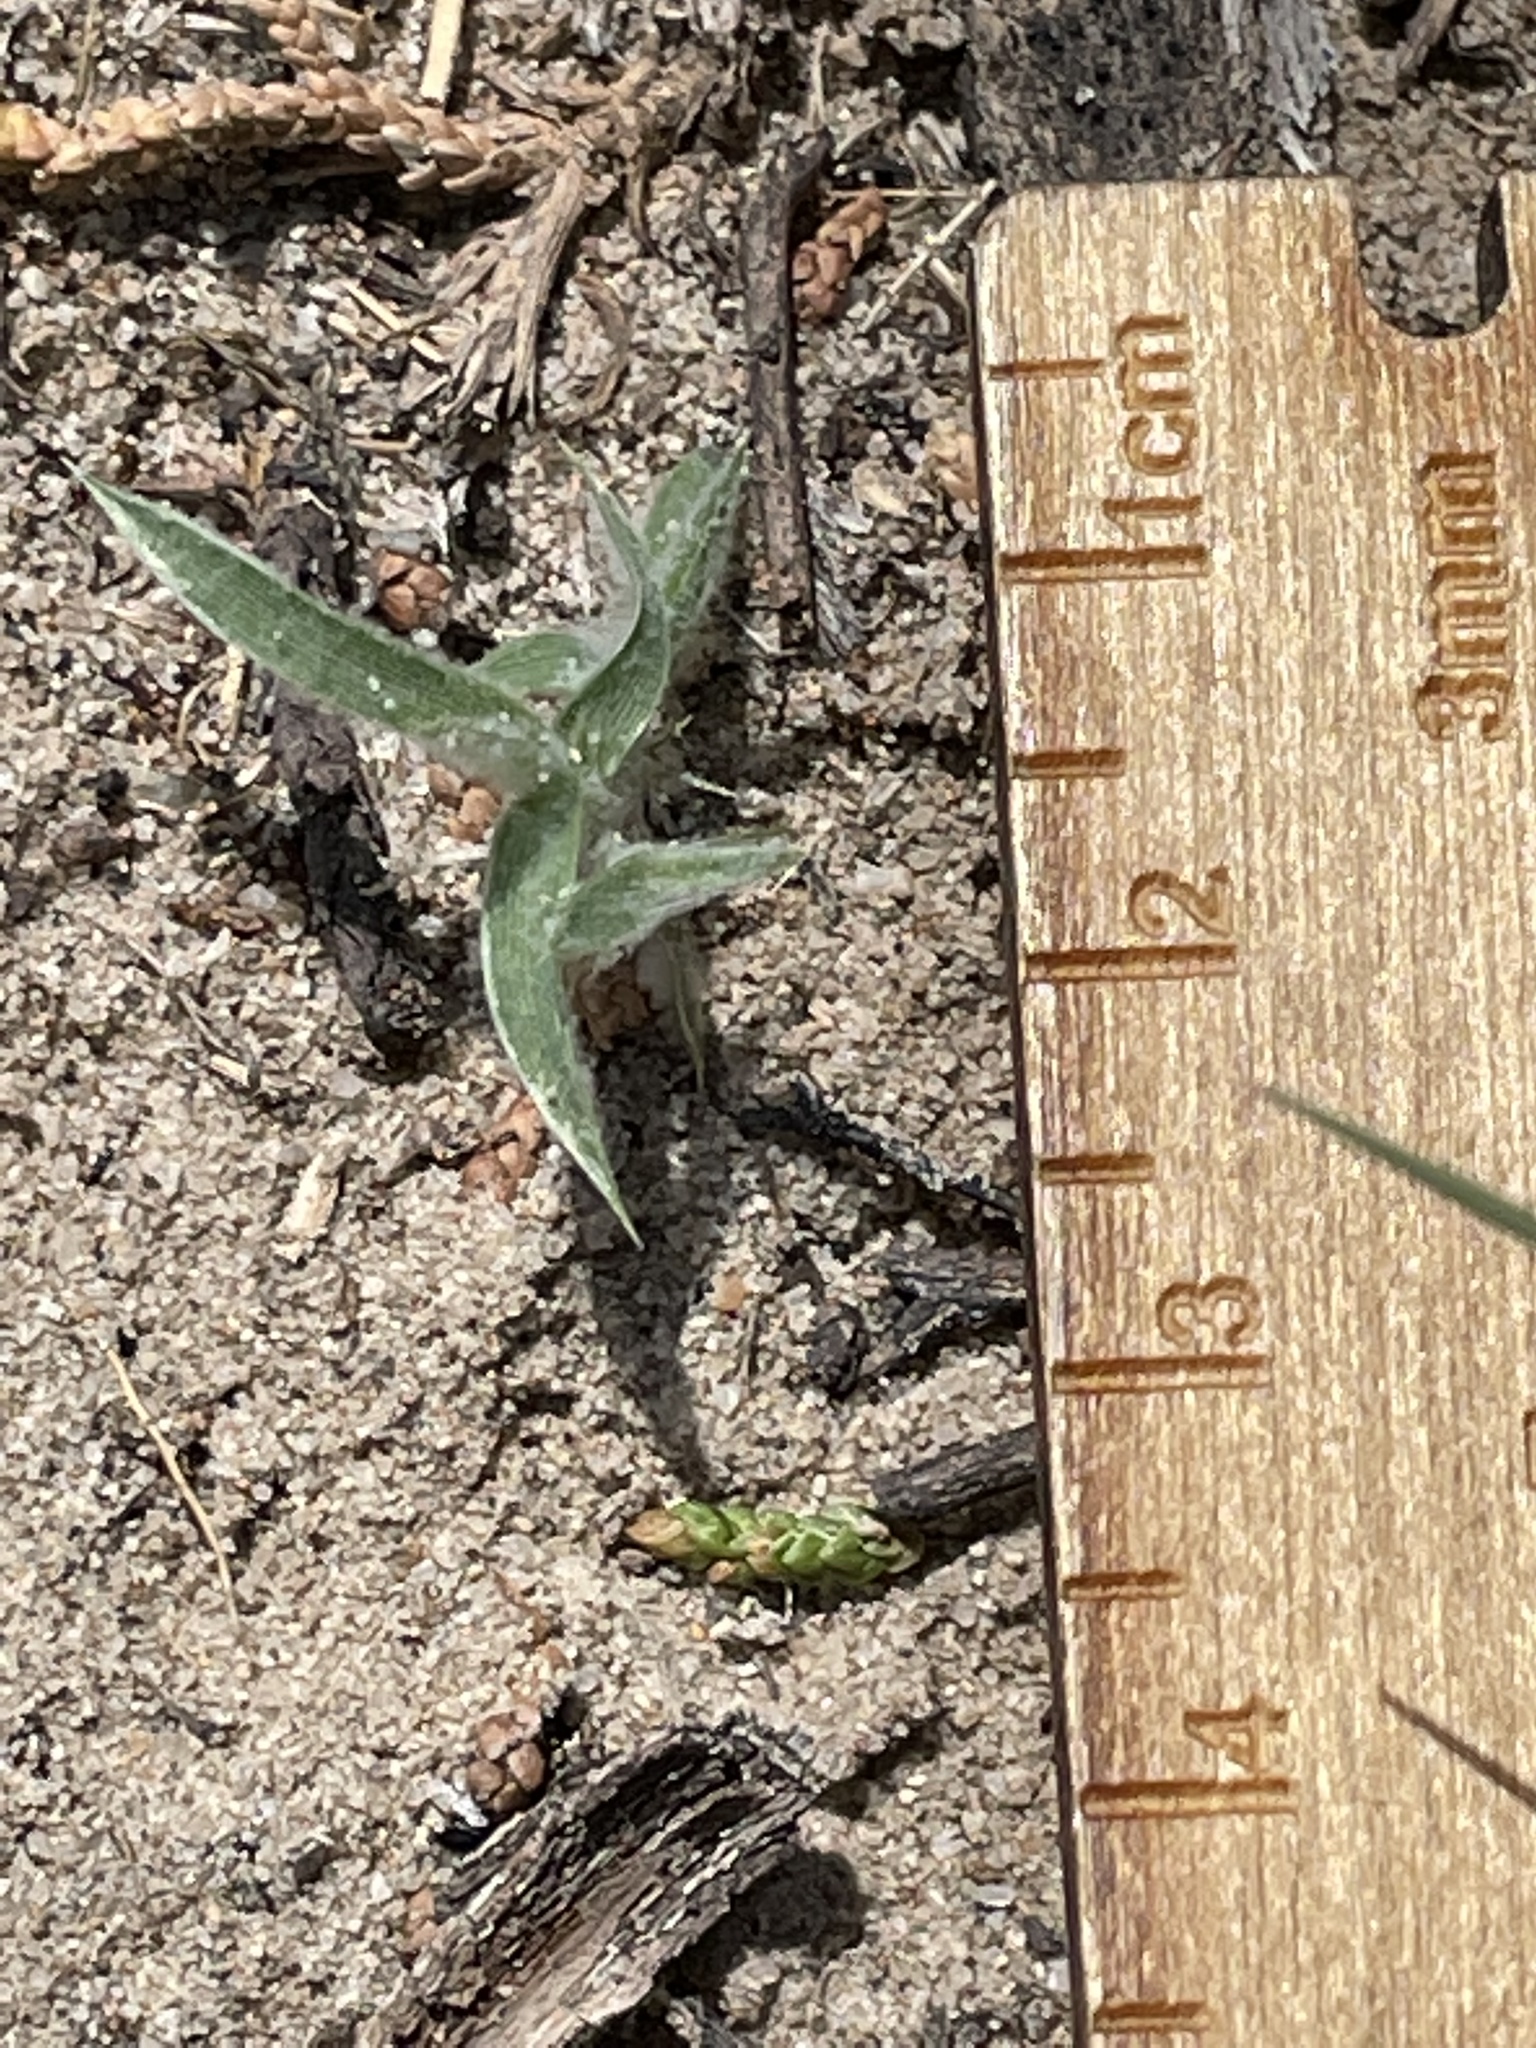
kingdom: Plantae
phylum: Tracheophyta
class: Liliopsida
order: Poales
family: Poaceae
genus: Munroa
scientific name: Munroa squarrosa
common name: False buffalo grass
